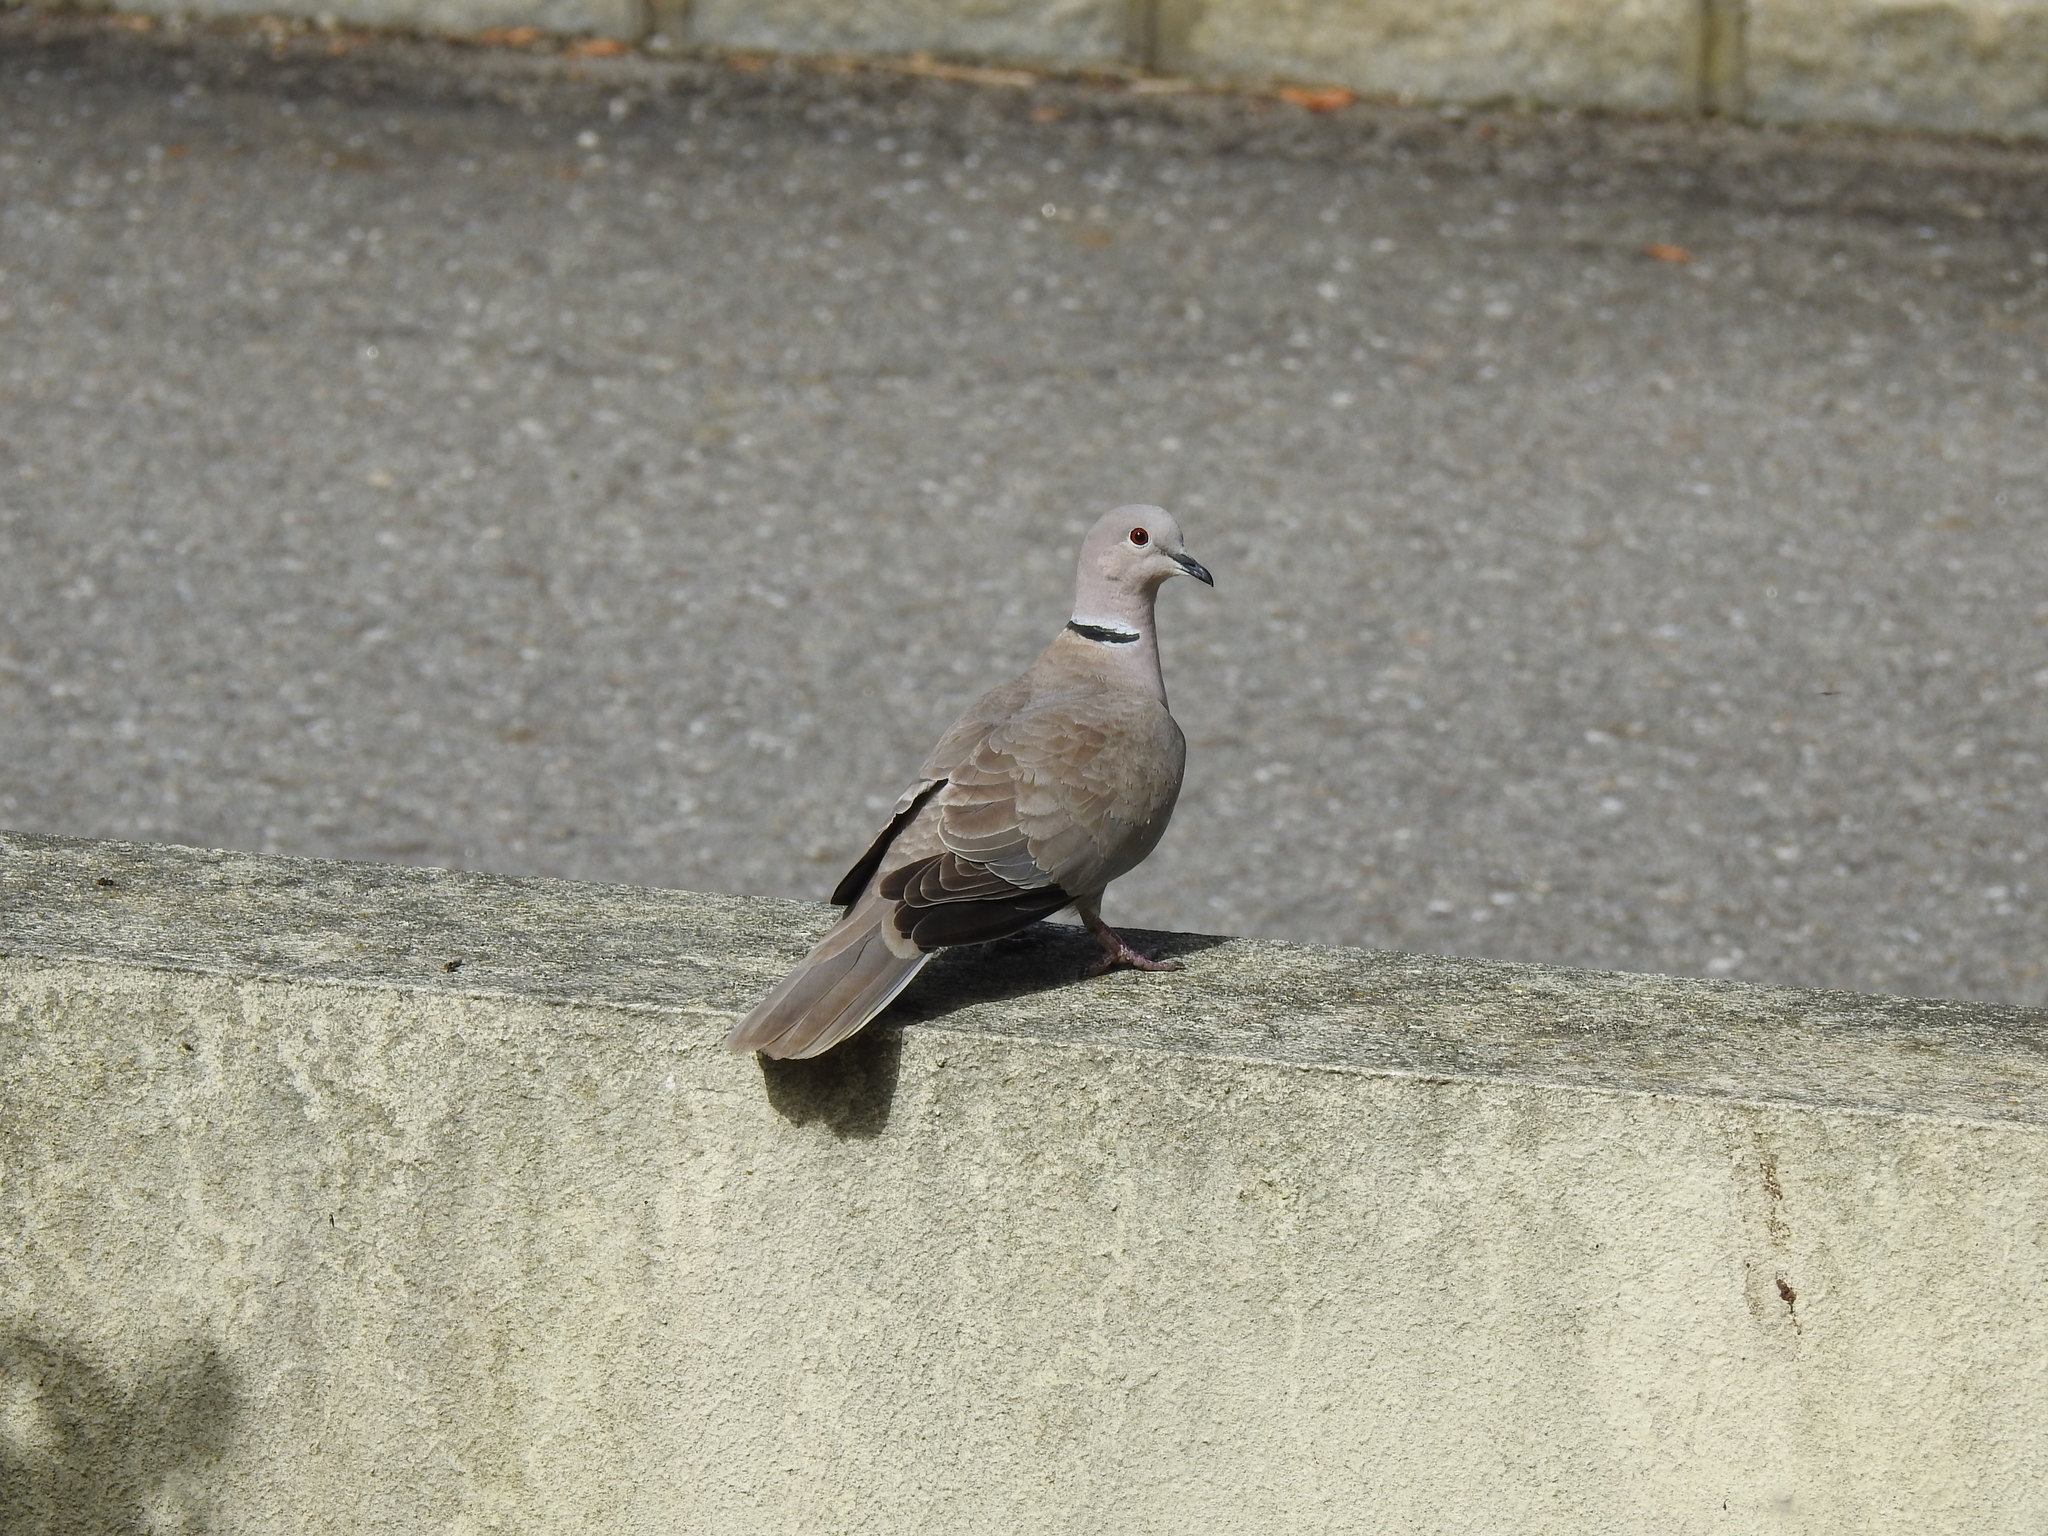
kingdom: Animalia
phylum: Chordata
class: Aves
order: Columbiformes
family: Columbidae
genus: Streptopelia
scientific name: Streptopelia decaocto
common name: Eurasian collared dove
